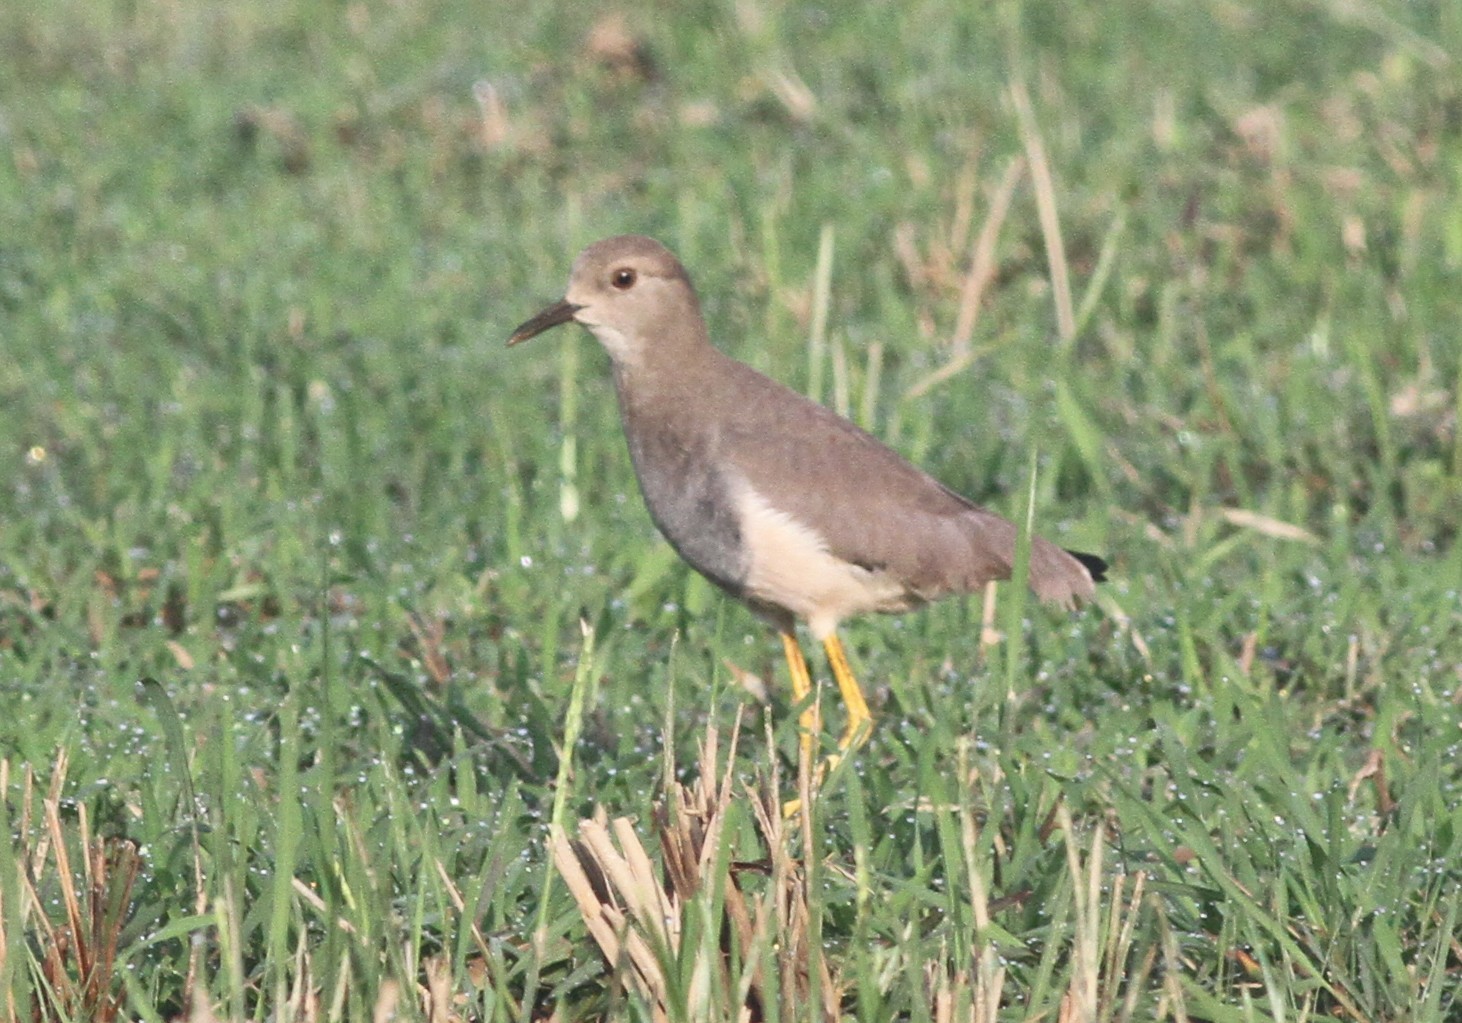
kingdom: Animalia
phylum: Chordata
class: Aves
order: Charadriiformes
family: Charadriidae
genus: Vanellus
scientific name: Vanellus leucurus
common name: White-tailed lapwing
